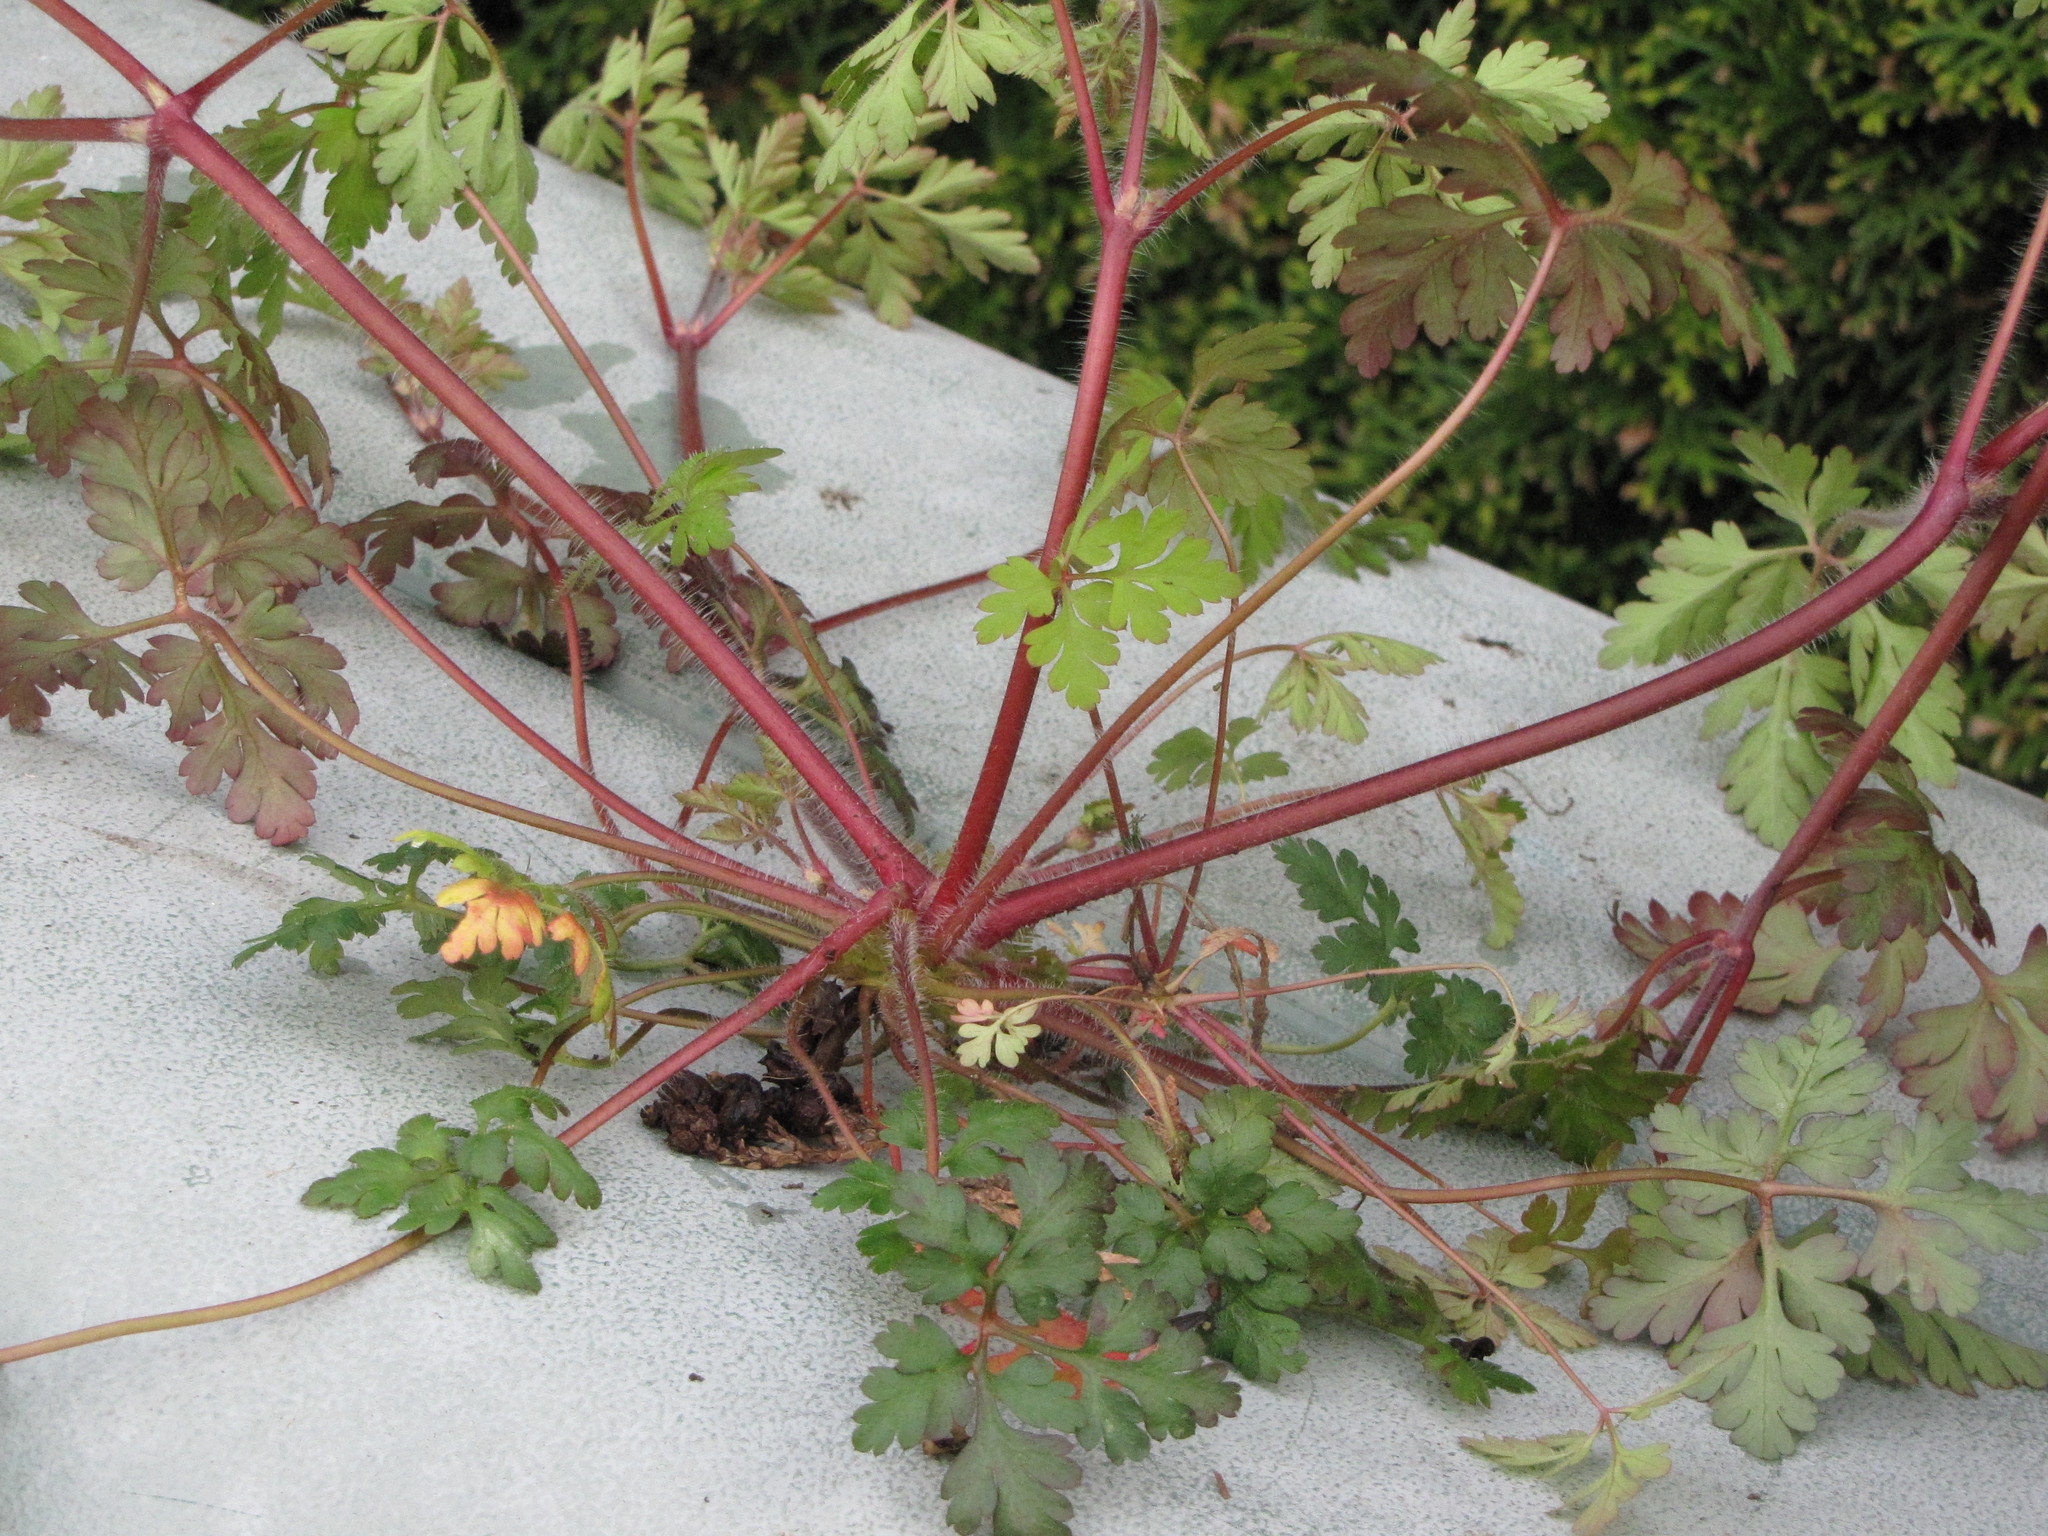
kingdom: Plantae
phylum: Tracheophyta
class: Magnoliopsida
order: Geraniales
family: Geraniaceae
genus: Geranium
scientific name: Geranium robertianum
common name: Herb-robert
